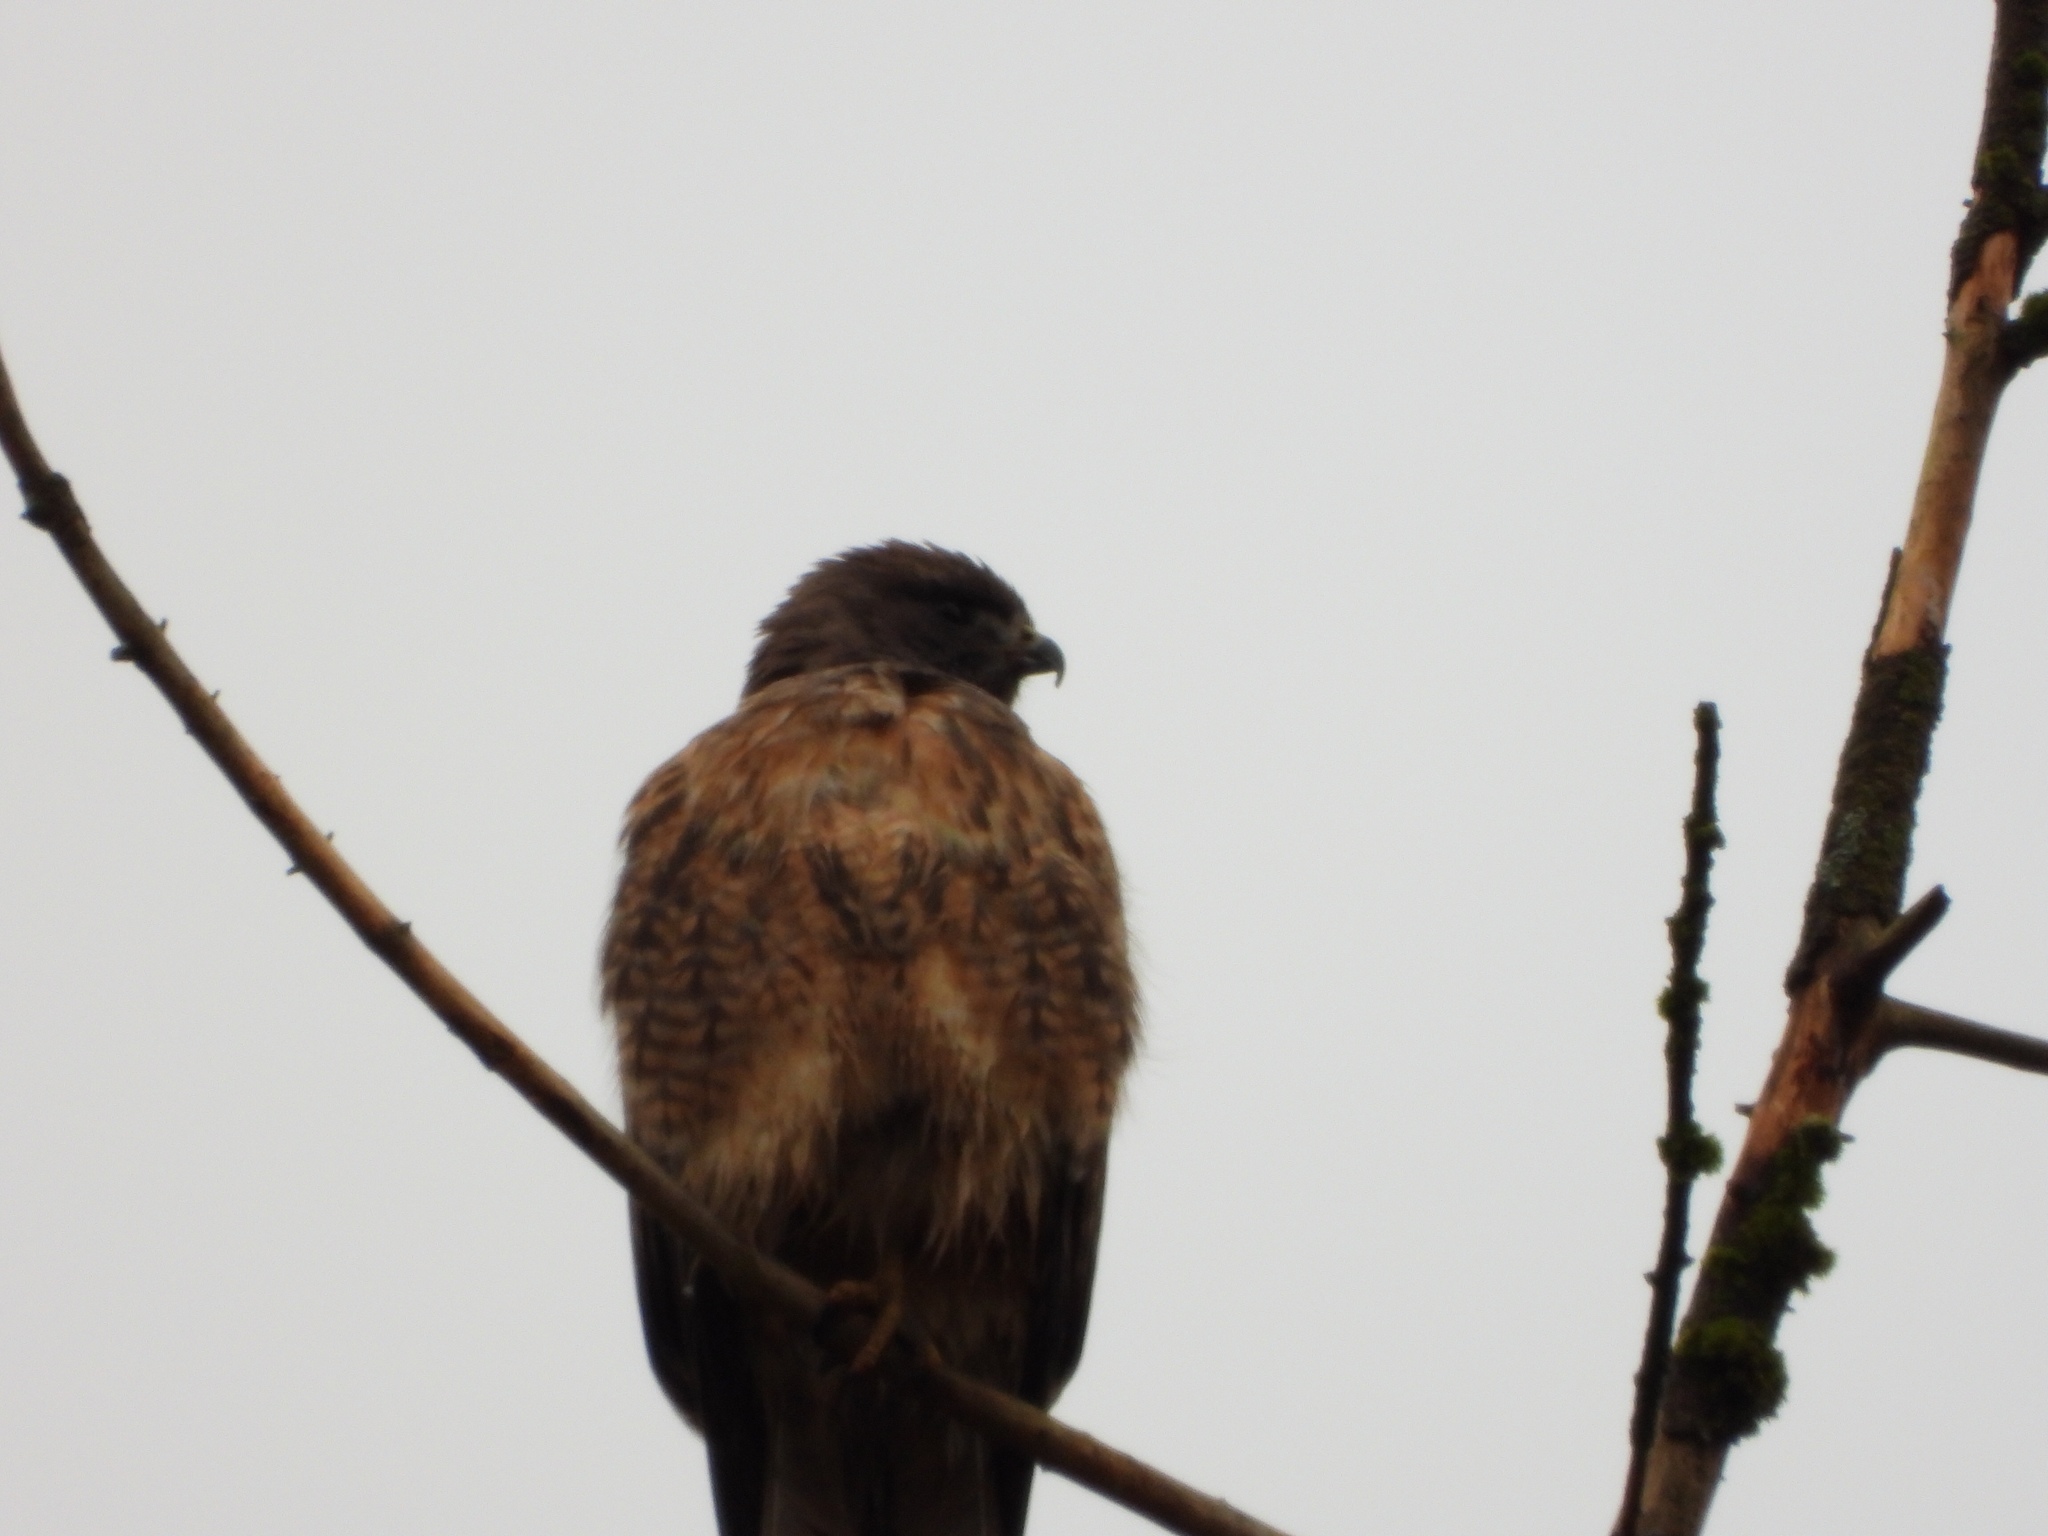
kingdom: Animalia
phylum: Chordata
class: Aves
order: Accipitriformes
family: Accipitridae
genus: Buteo
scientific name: Buteo jamaicensis
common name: Red-tailed hawk
